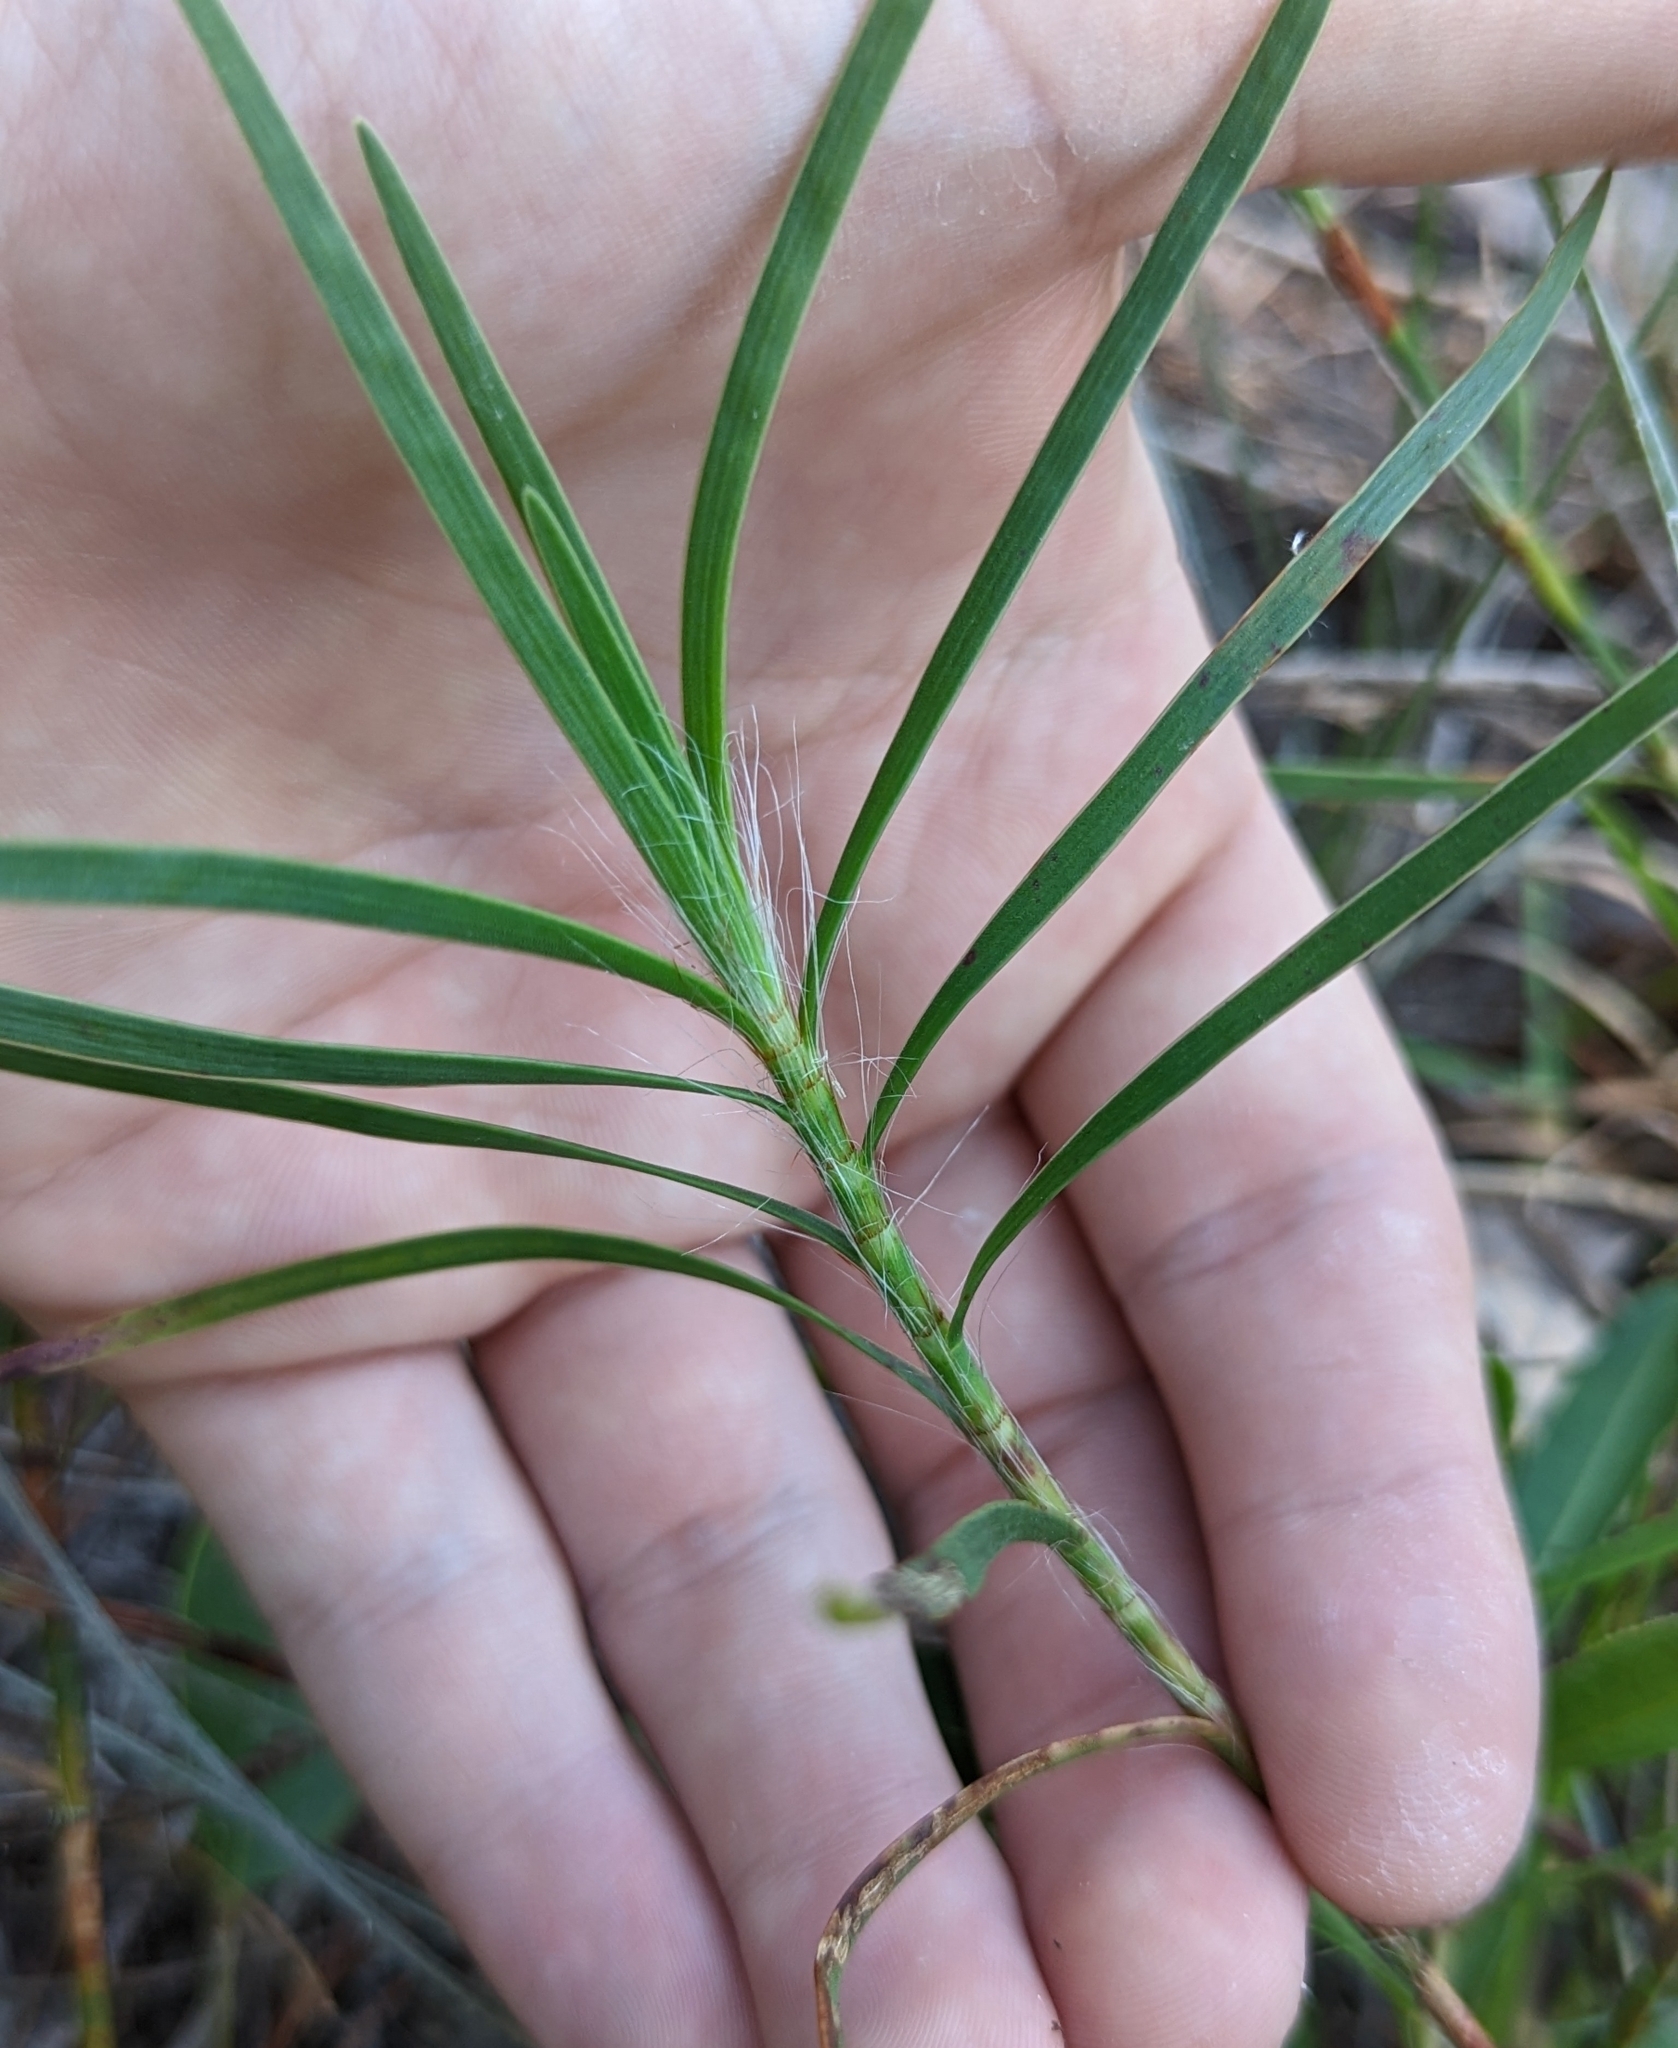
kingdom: Plantae
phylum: Tracheophyta
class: Magnoliopsida
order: Caryophyllales
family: Polygonaceae
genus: Polygonella
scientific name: Polygonella robusta
